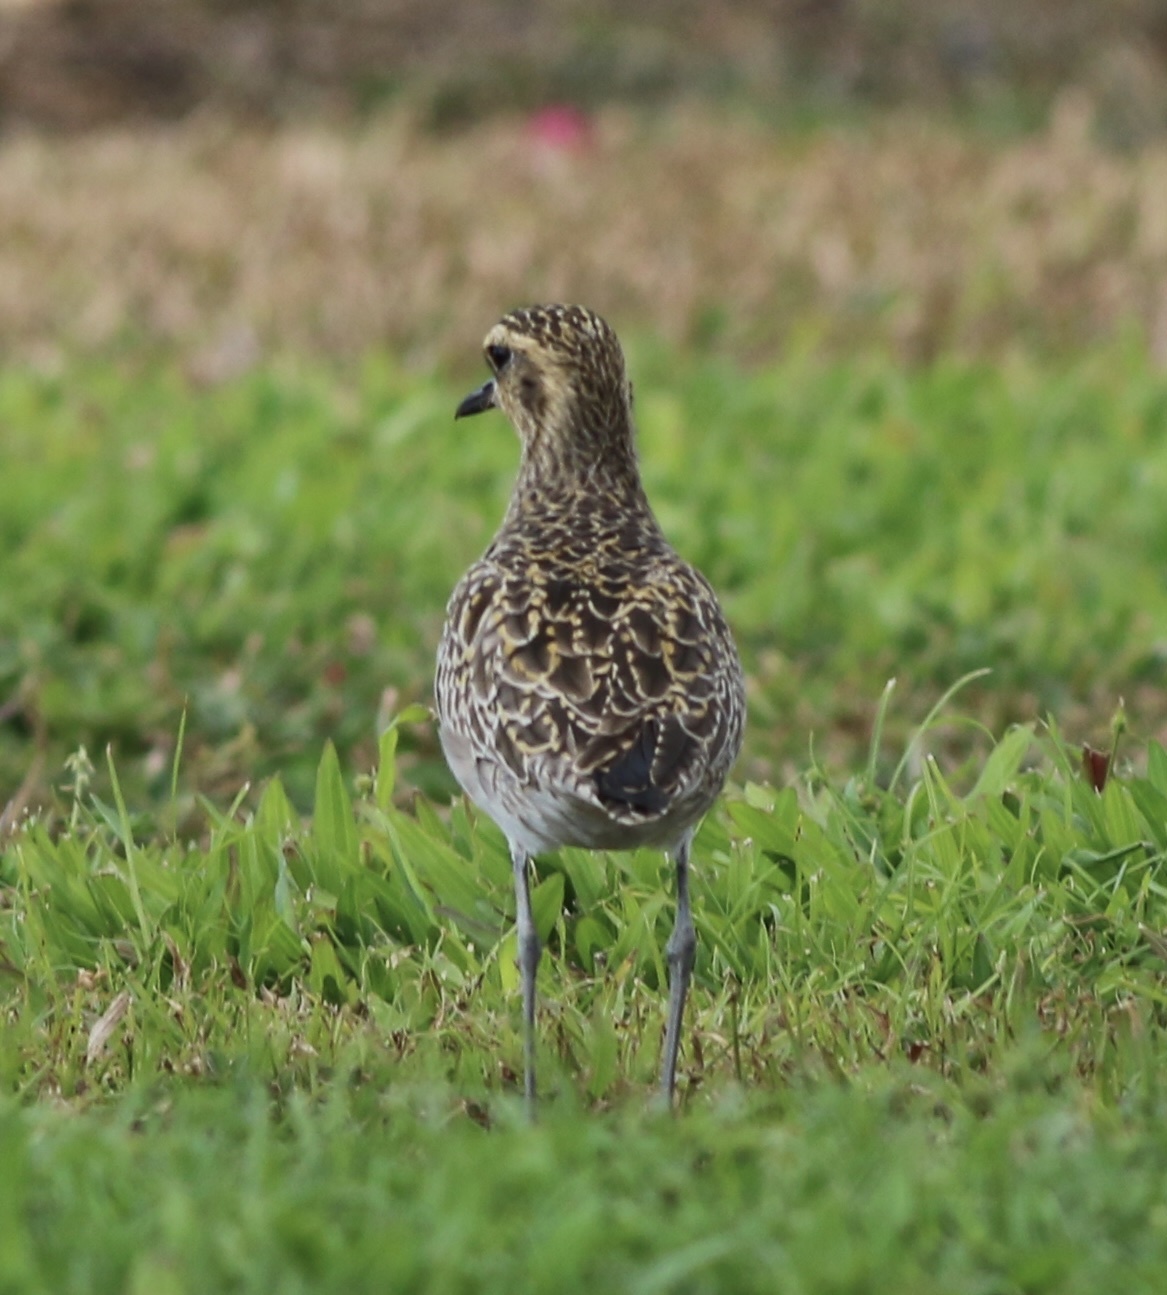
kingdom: Animalia
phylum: Chordata
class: Aves
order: Charadriiformes
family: Charadriidae
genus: Pluvialis
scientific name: Pluvialis fulva
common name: Pacific golden plover
